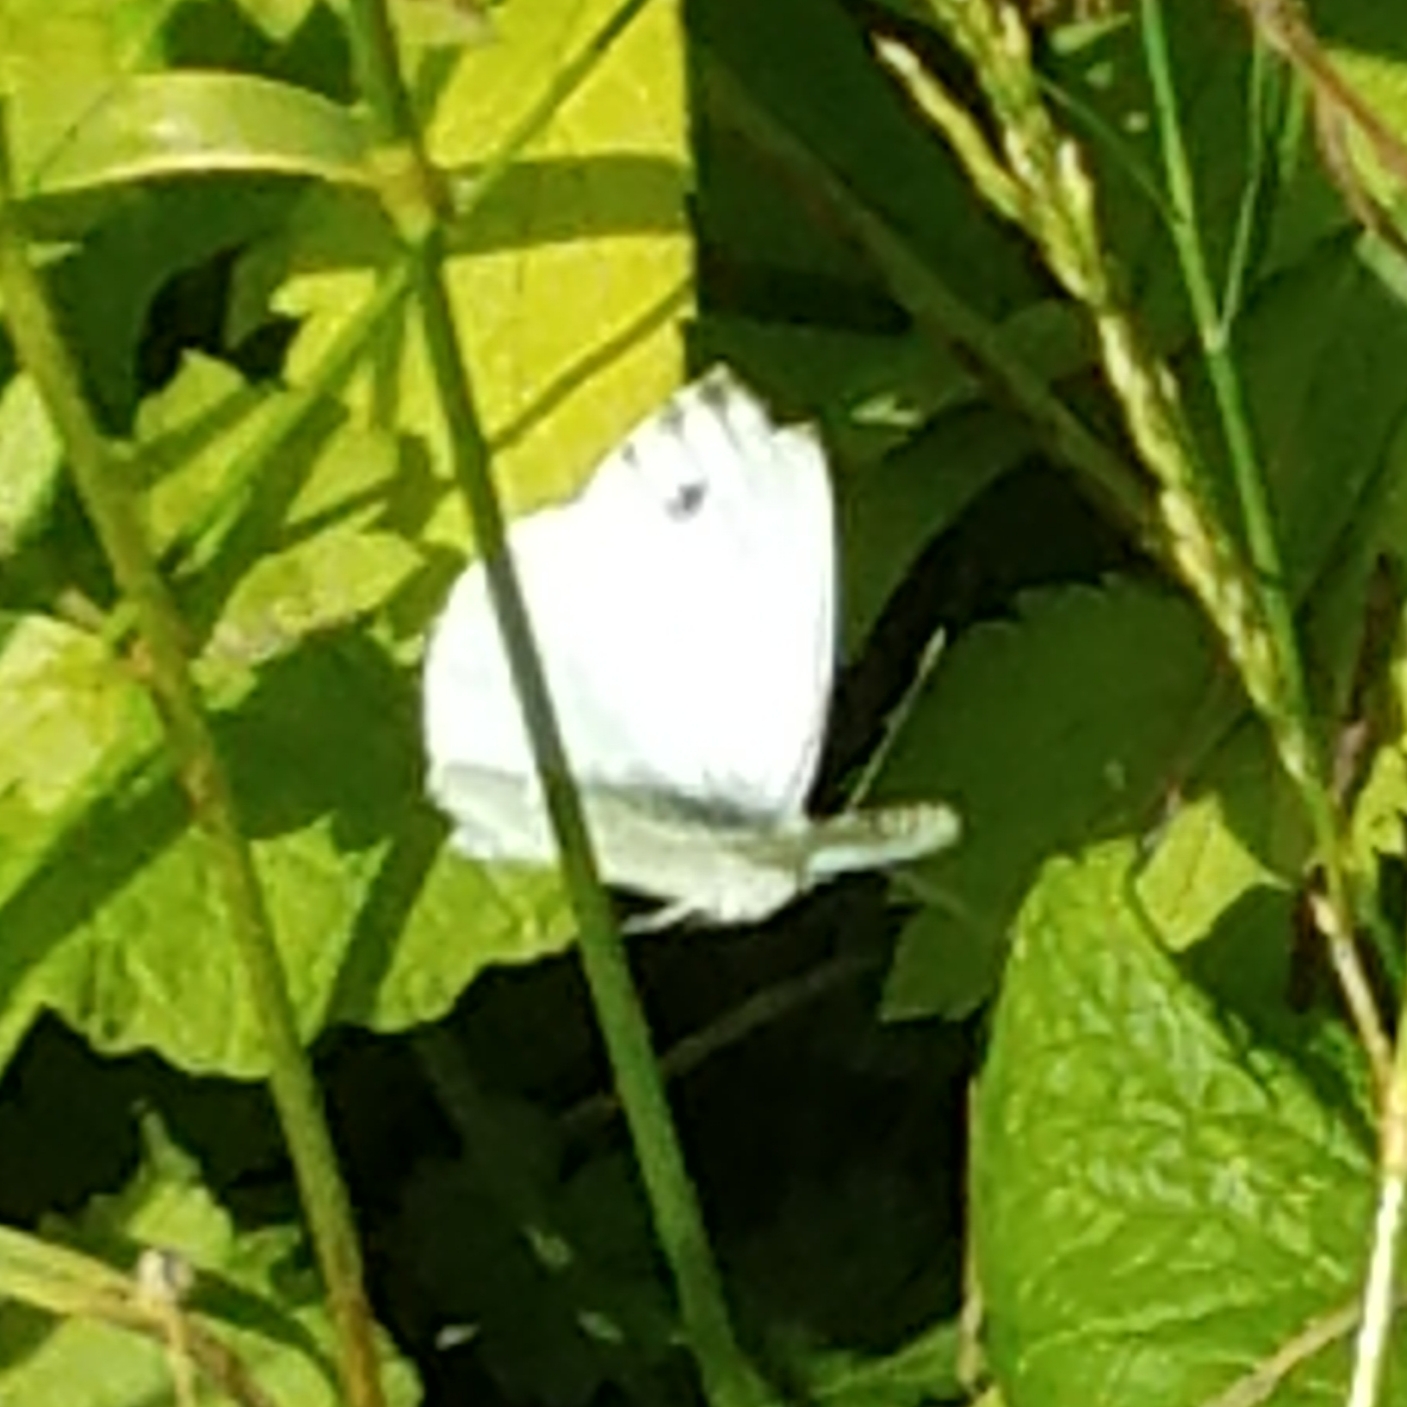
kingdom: Animalia
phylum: Arthropoda
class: Insecta
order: Lepidoptera
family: Pieridae
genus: Pieris
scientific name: Pieris napi
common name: Green-veined white
